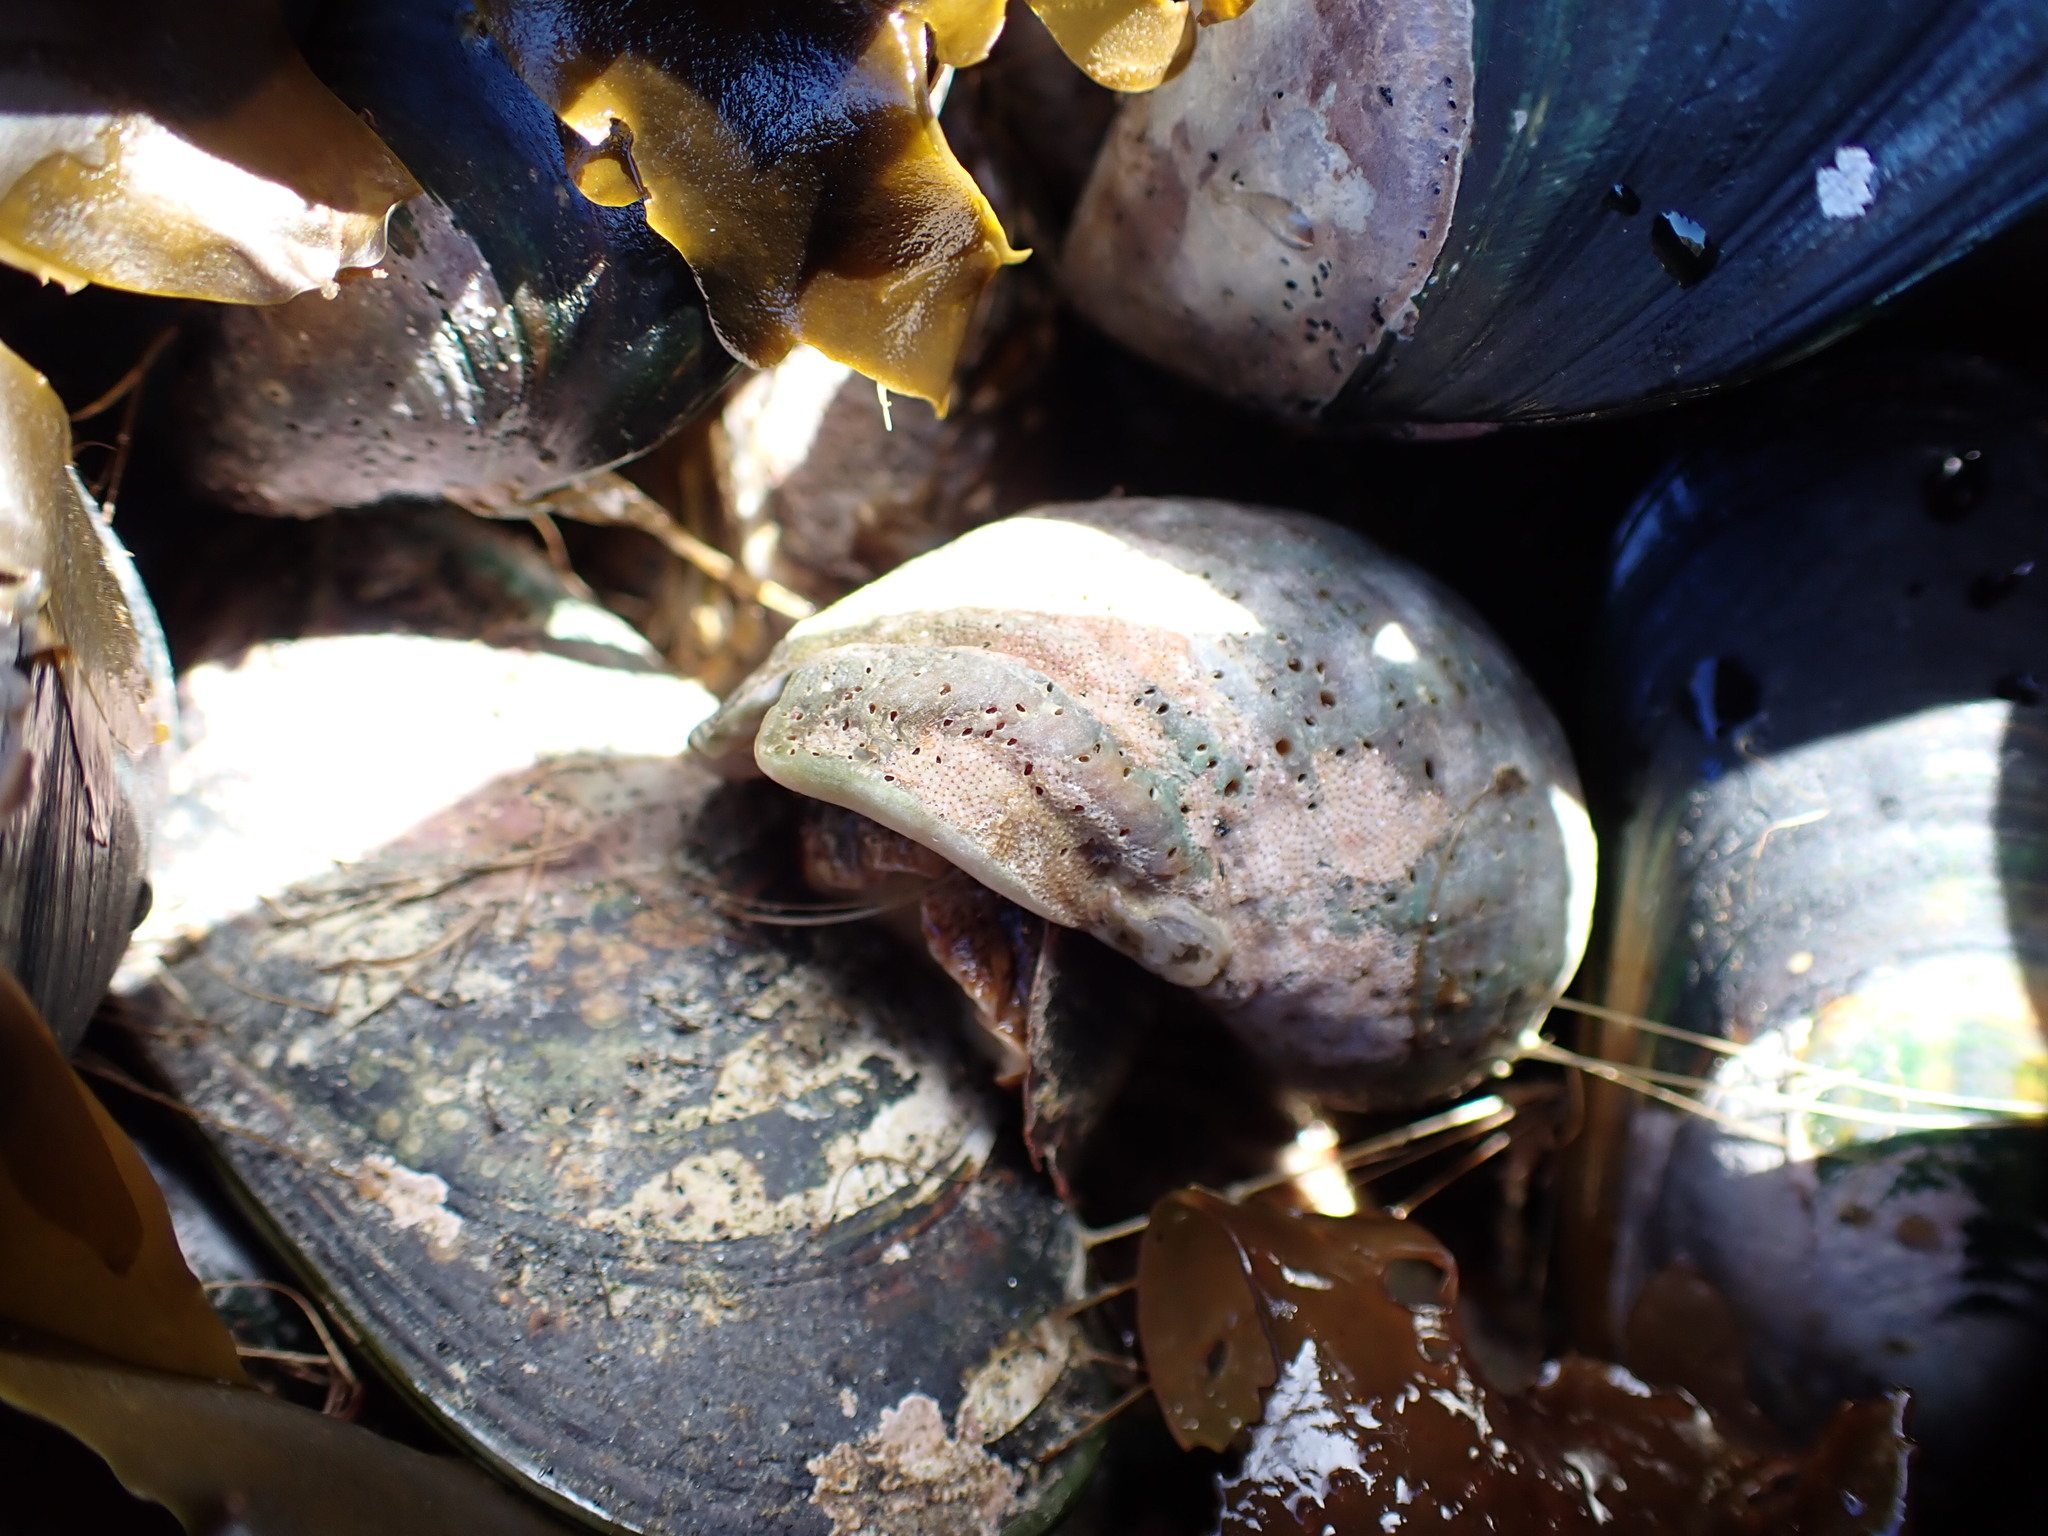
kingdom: Animalia
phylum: Mollusca
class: Gastropoda
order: Neogastropoda
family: Muricidae
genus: Dicathais
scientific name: Dicathais orbita
